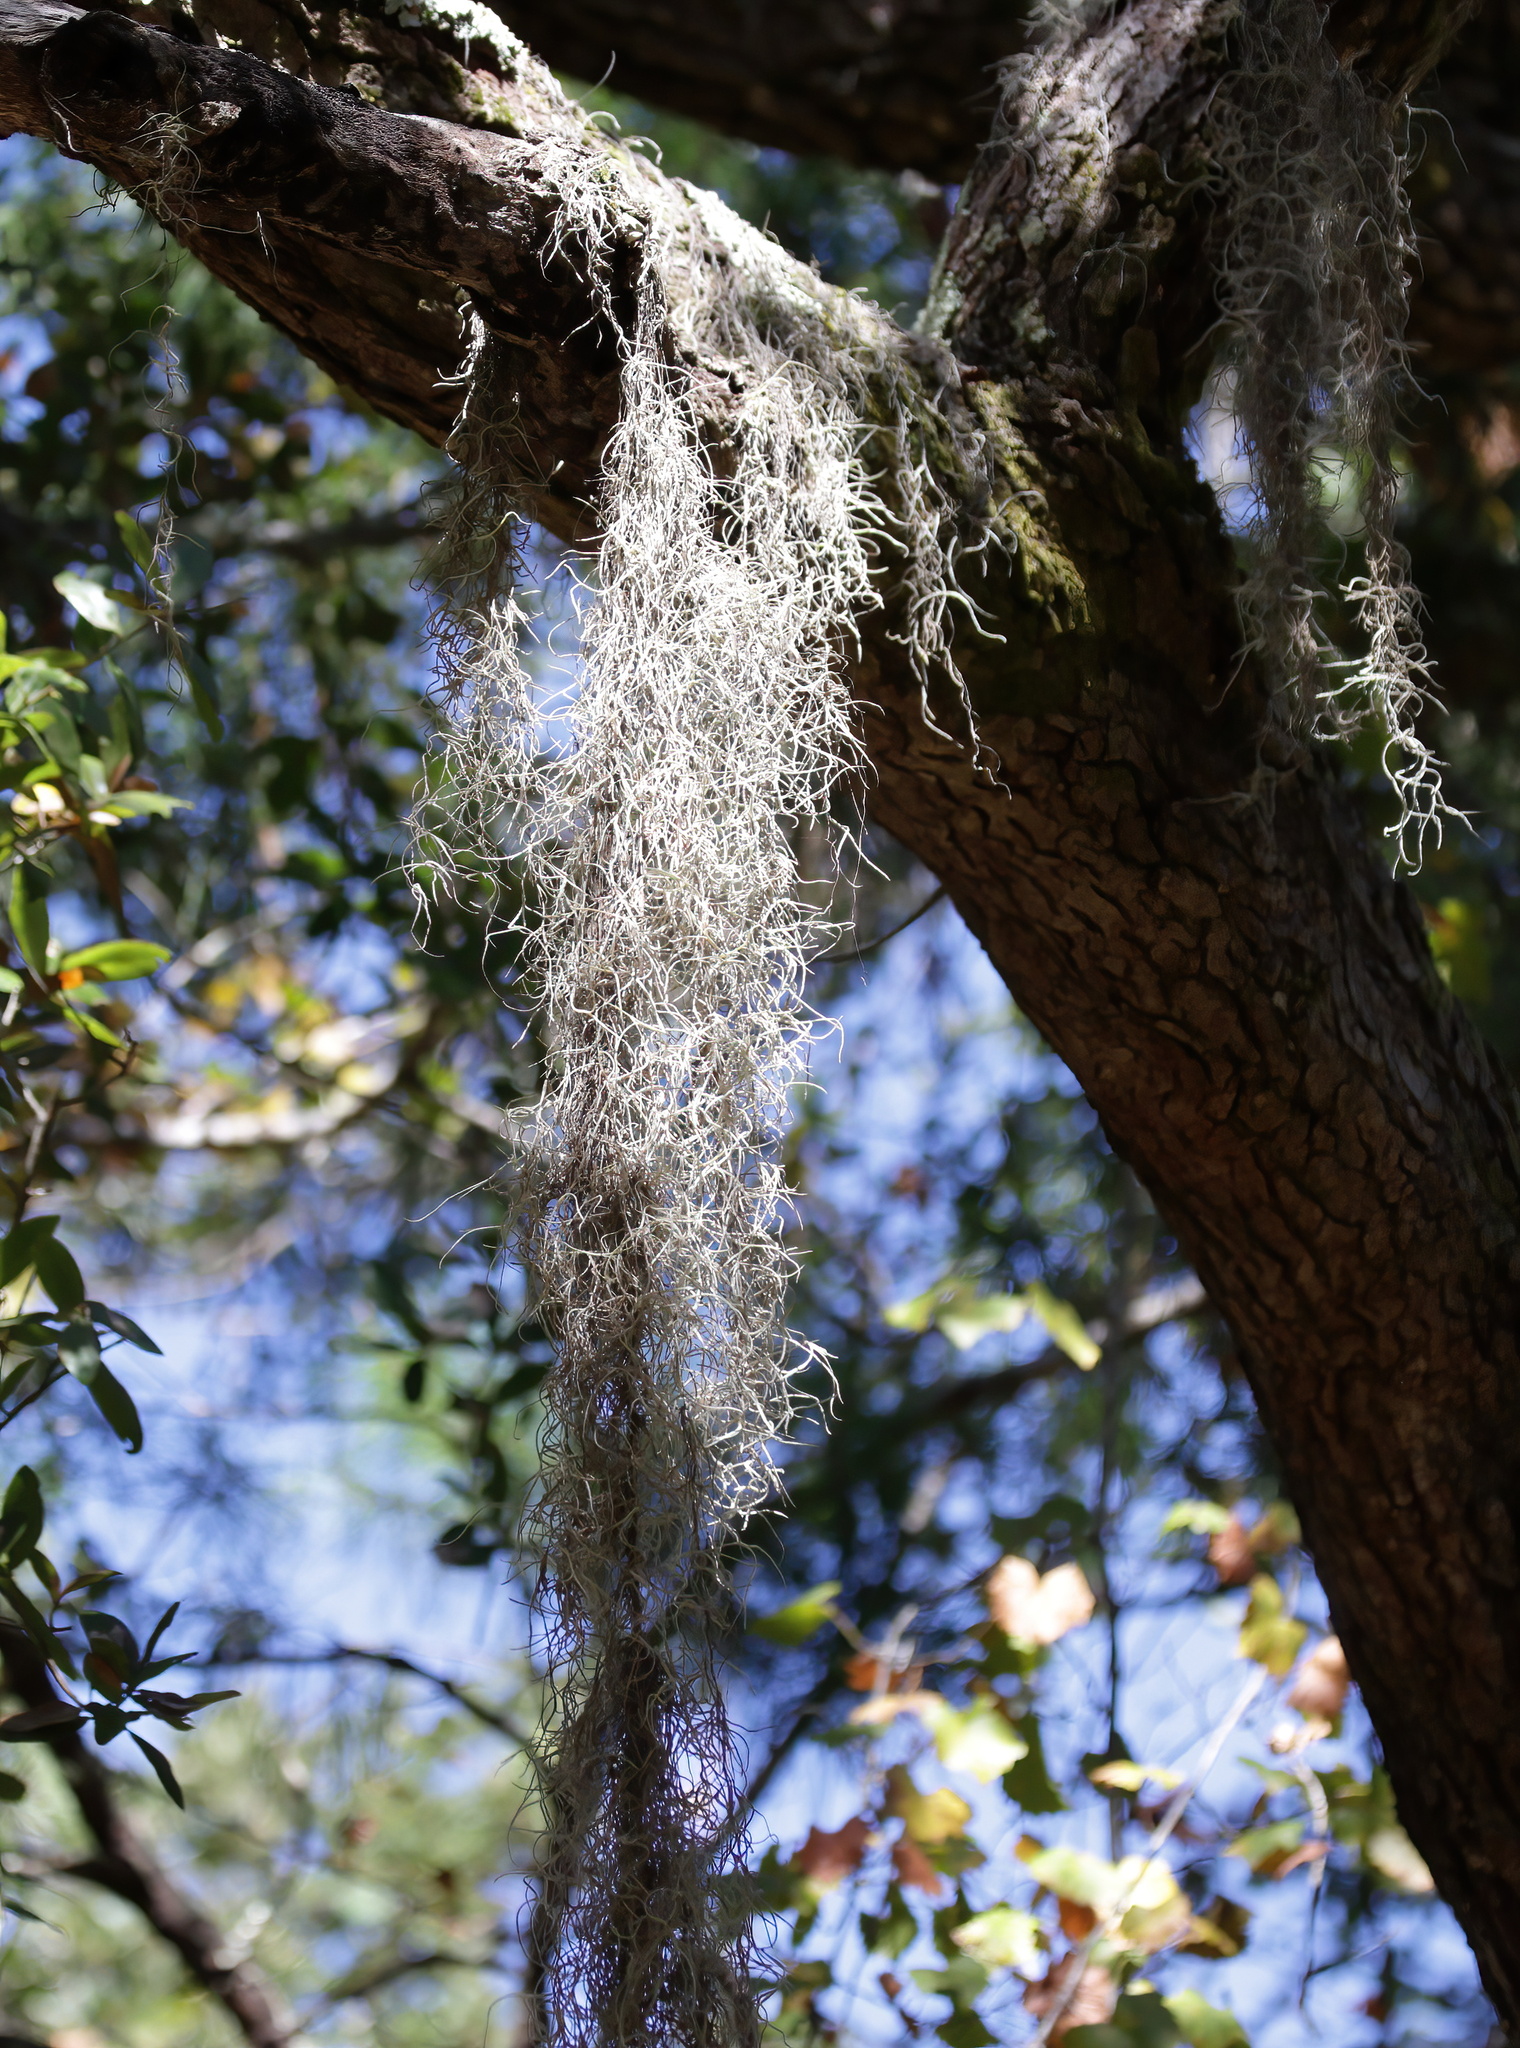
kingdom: Plantae
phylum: Tracheophyta
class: Liliopsida
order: Poales
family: Bromeliaceae
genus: Tillandsia
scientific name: Tillandsia usneoides
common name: Spanish moss
